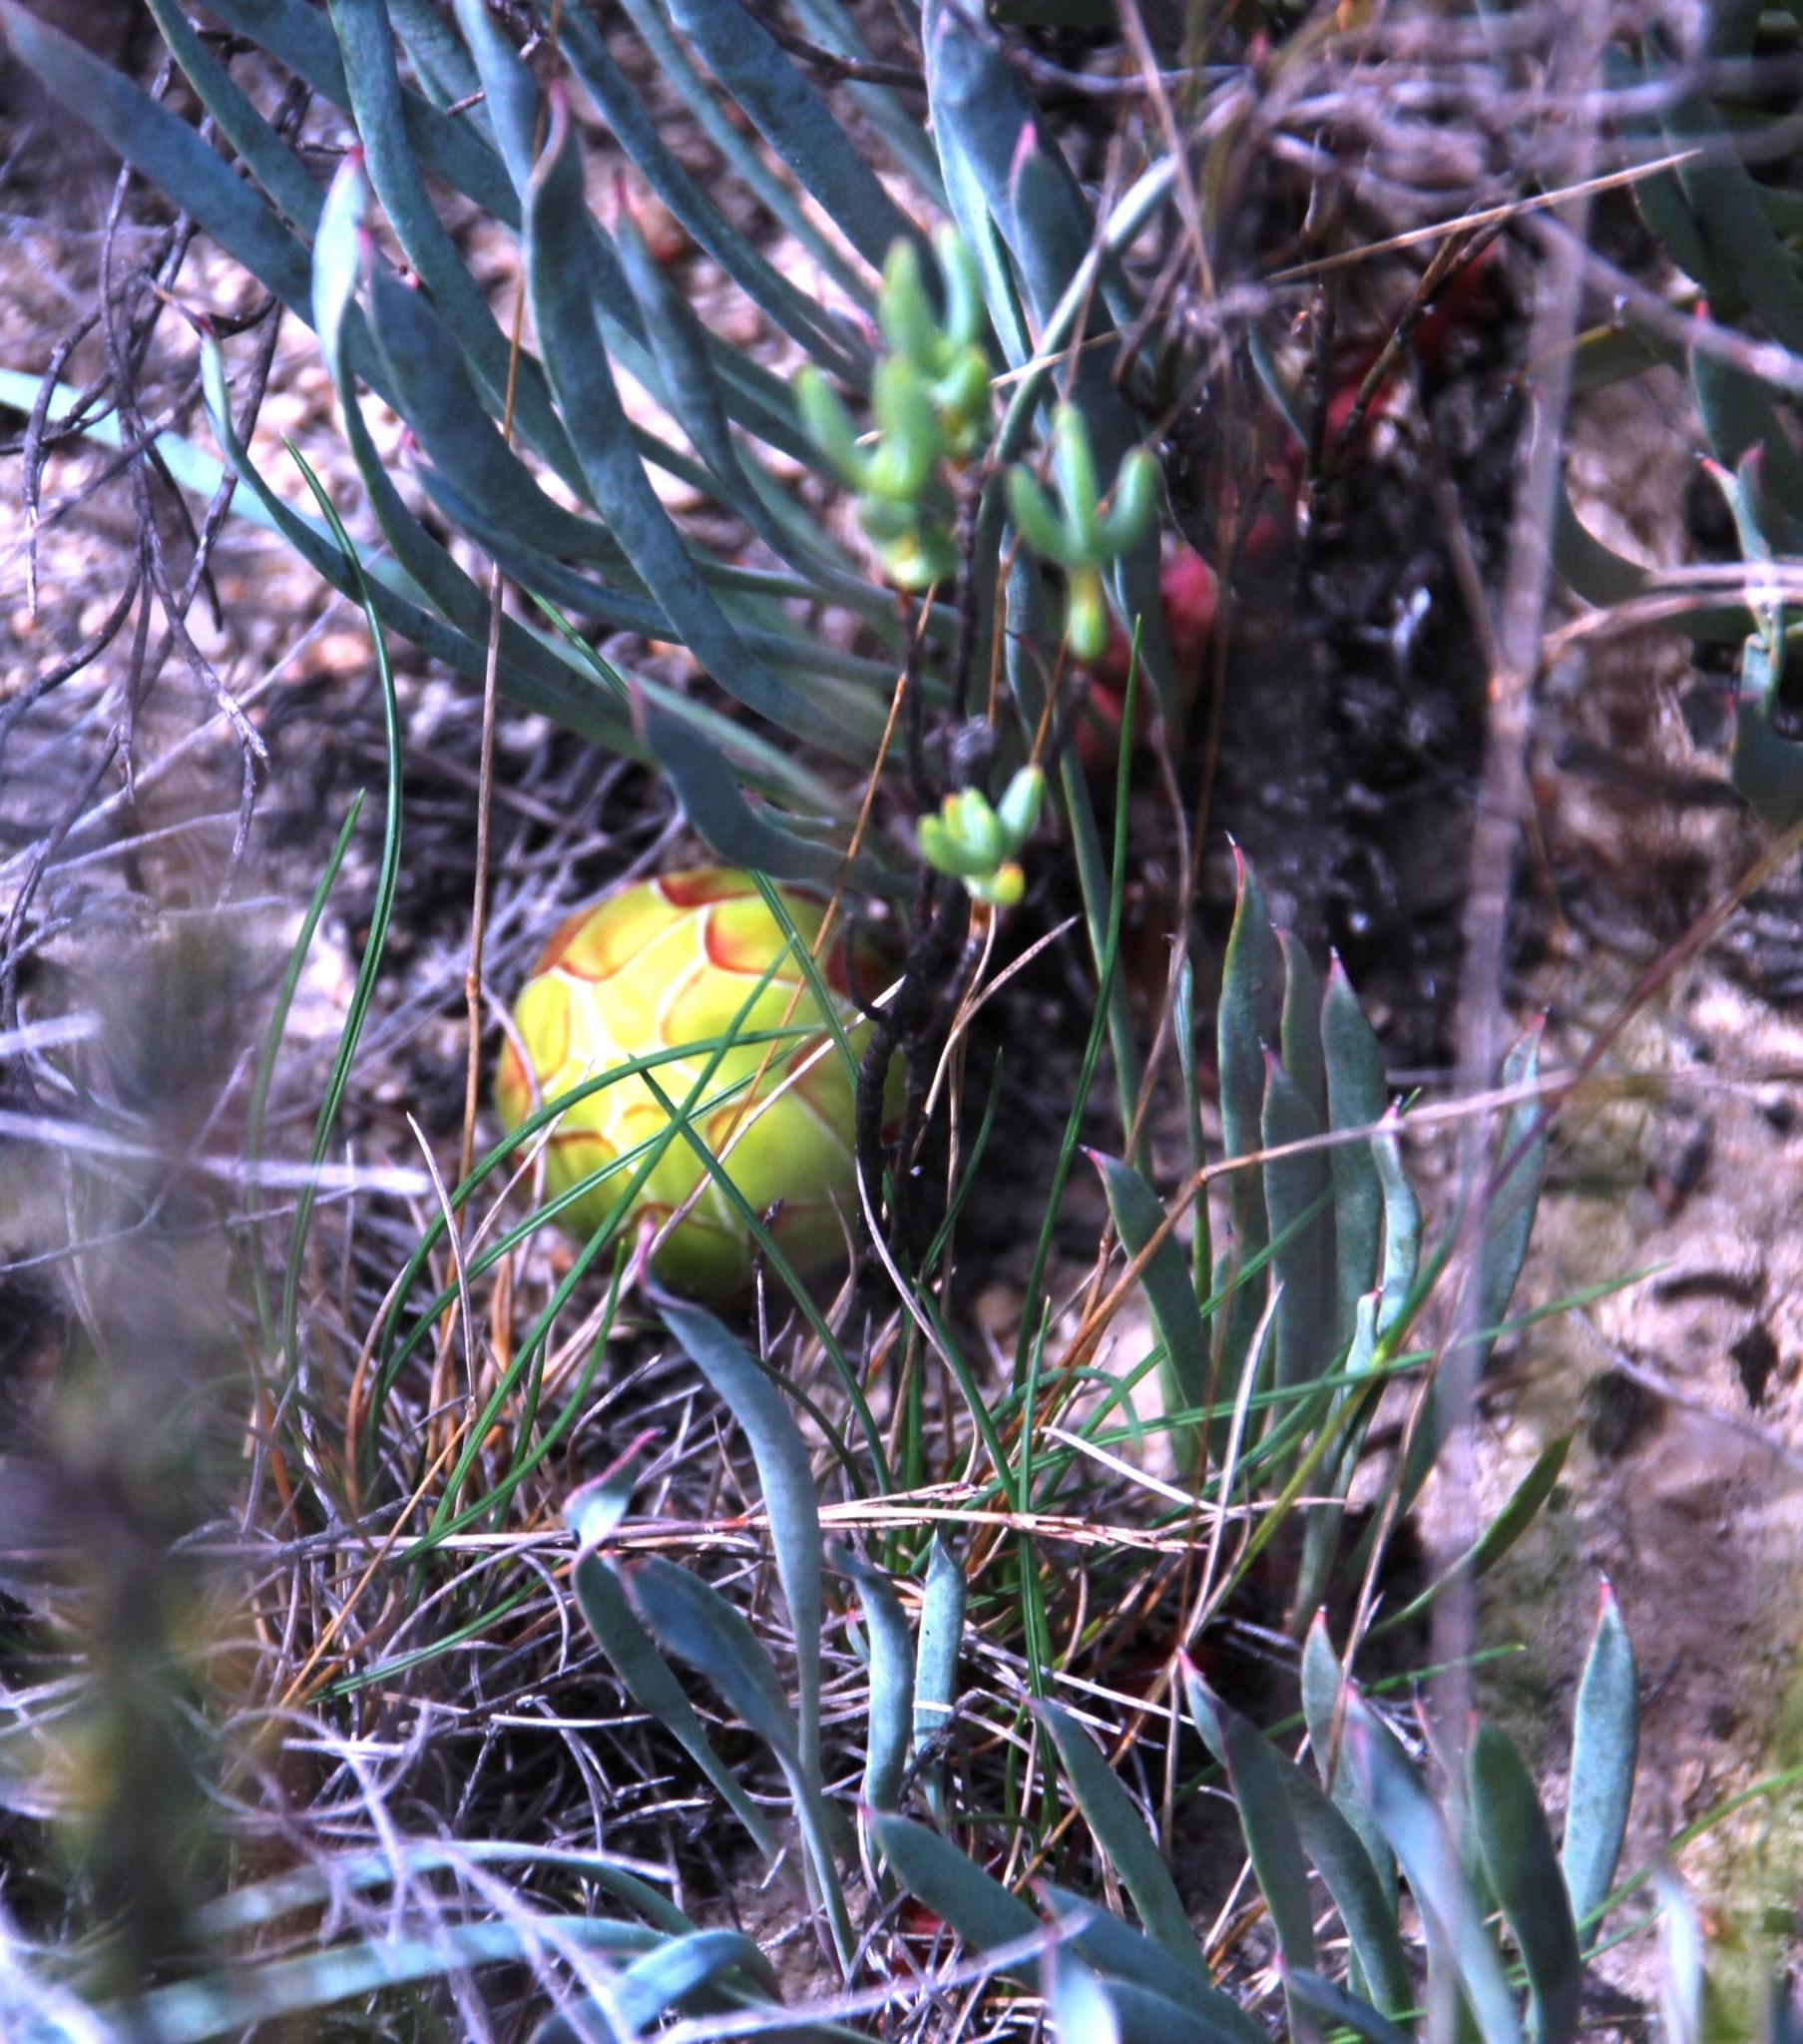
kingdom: Plantae
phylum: Tracheophyta
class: Magnoliopsida
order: Proteales
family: Proteaceae
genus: Protea
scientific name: Protea laevis
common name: Smooth-leaf sugarbush
